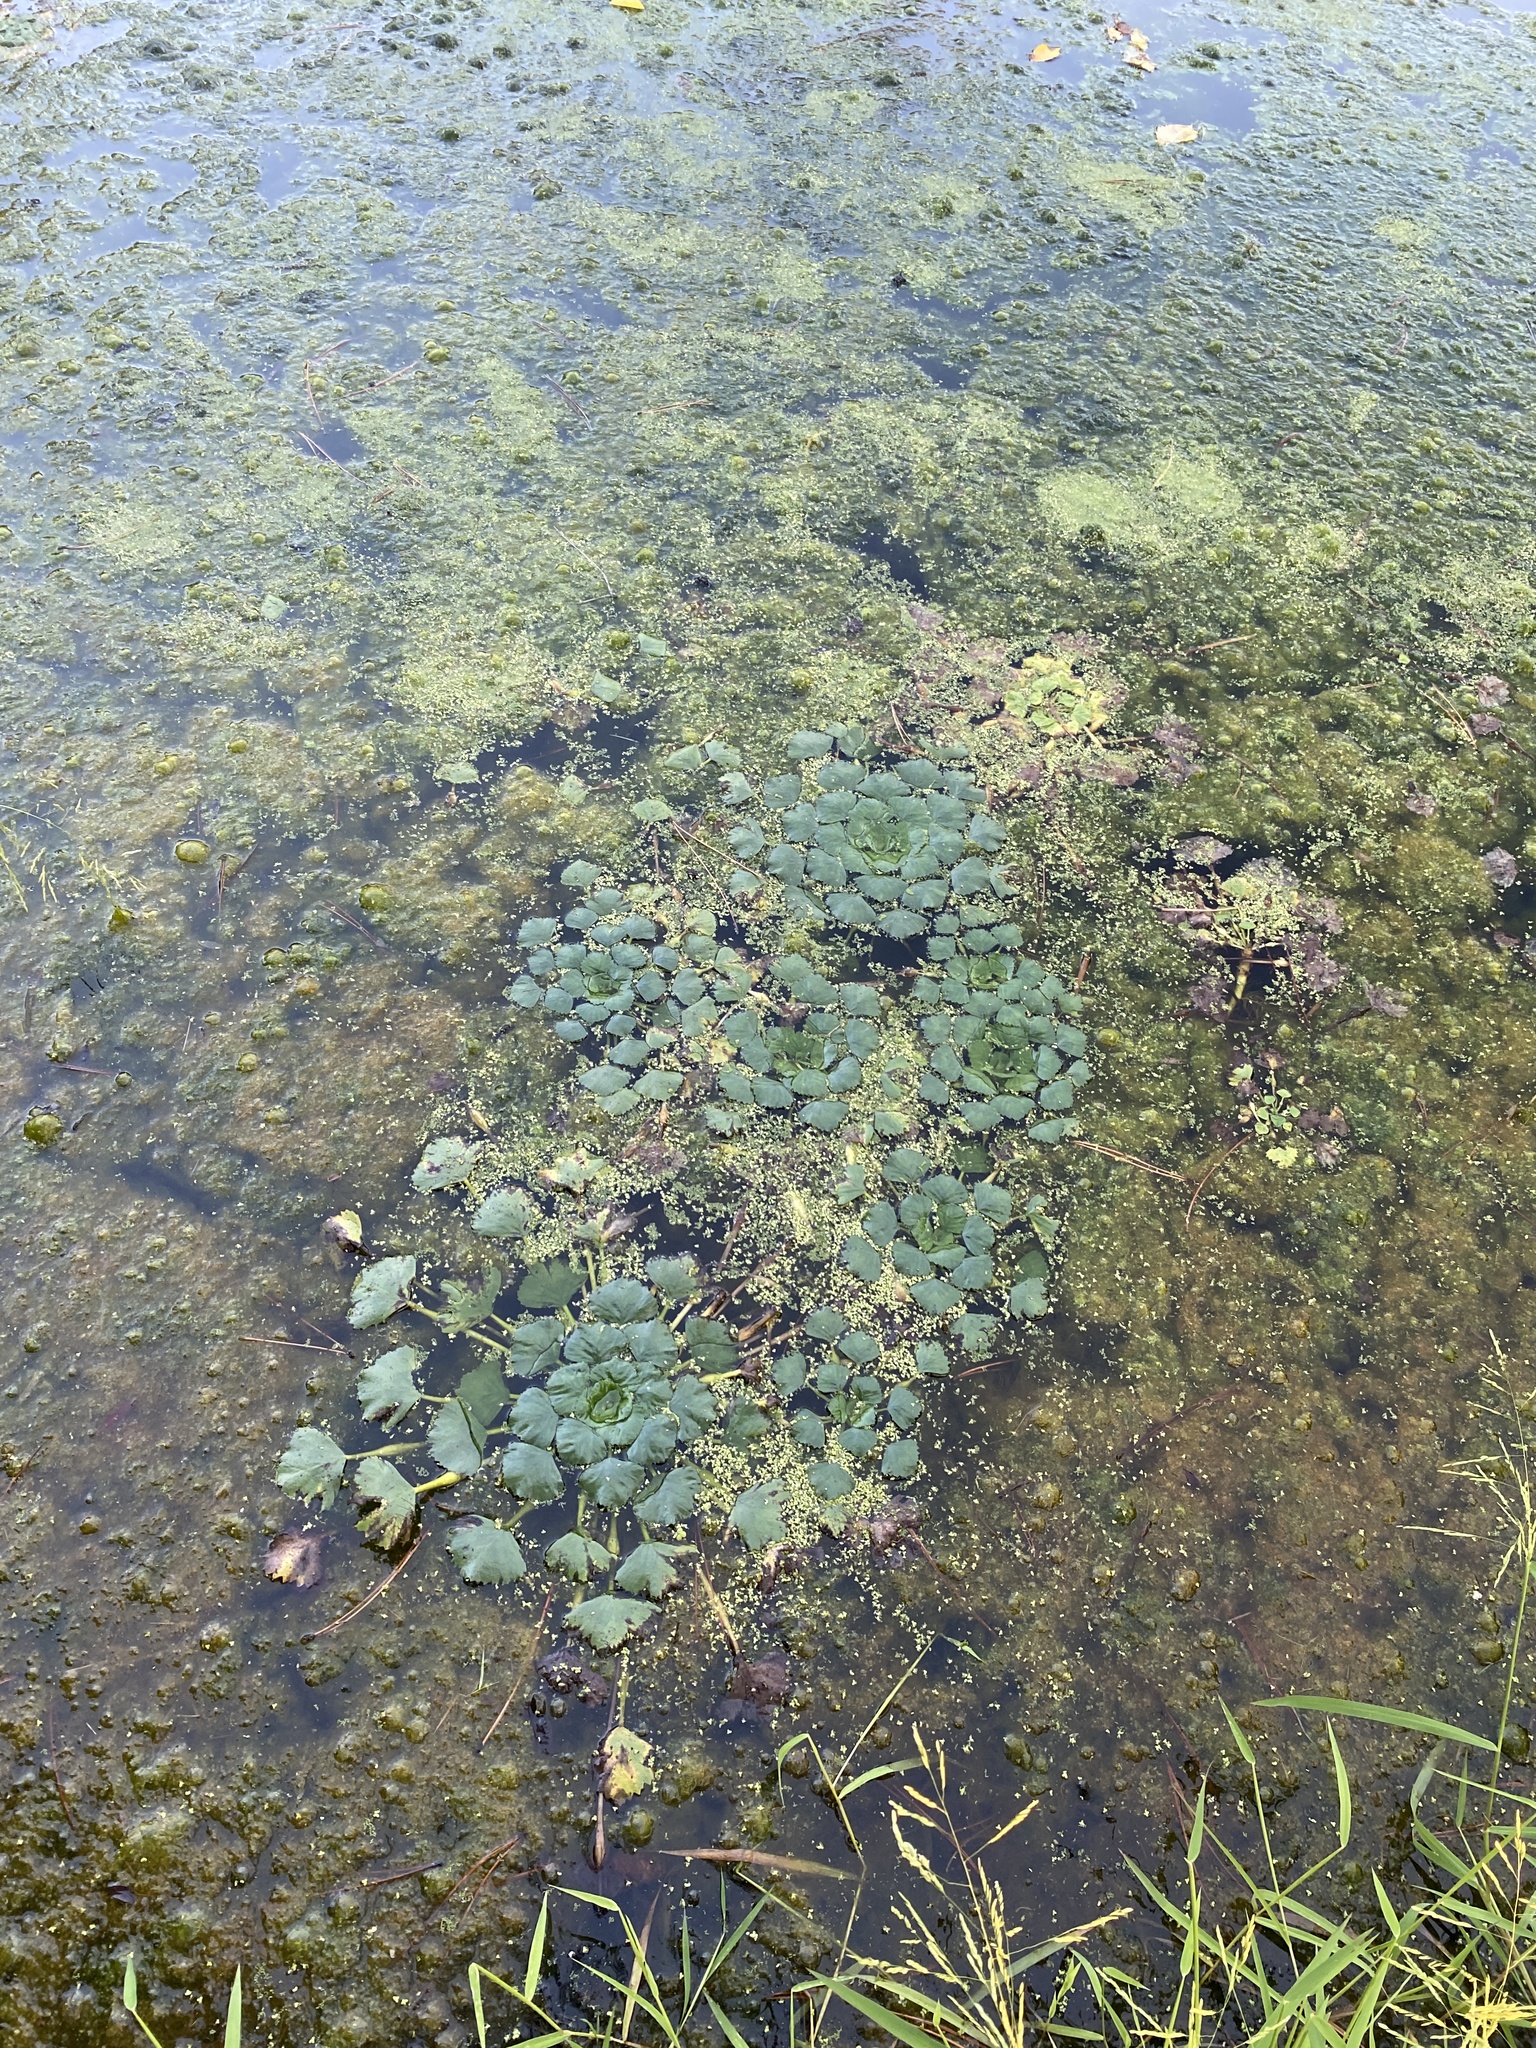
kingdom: Plantae
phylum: Tracheophyta
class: Magnoliopsida
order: Myrtales
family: Lythraceae
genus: Trapa
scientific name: Trapa natans
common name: Water chestnut
